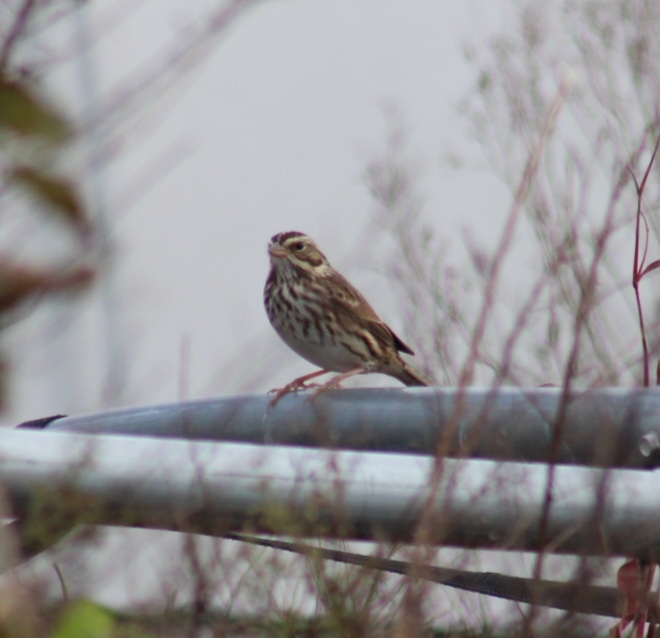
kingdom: Animalia
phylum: Chordata
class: Aves
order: Passeriformes
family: Passerellidae
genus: Passerculus
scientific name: Passerculus sandwichensis
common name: Savannah sparrow
